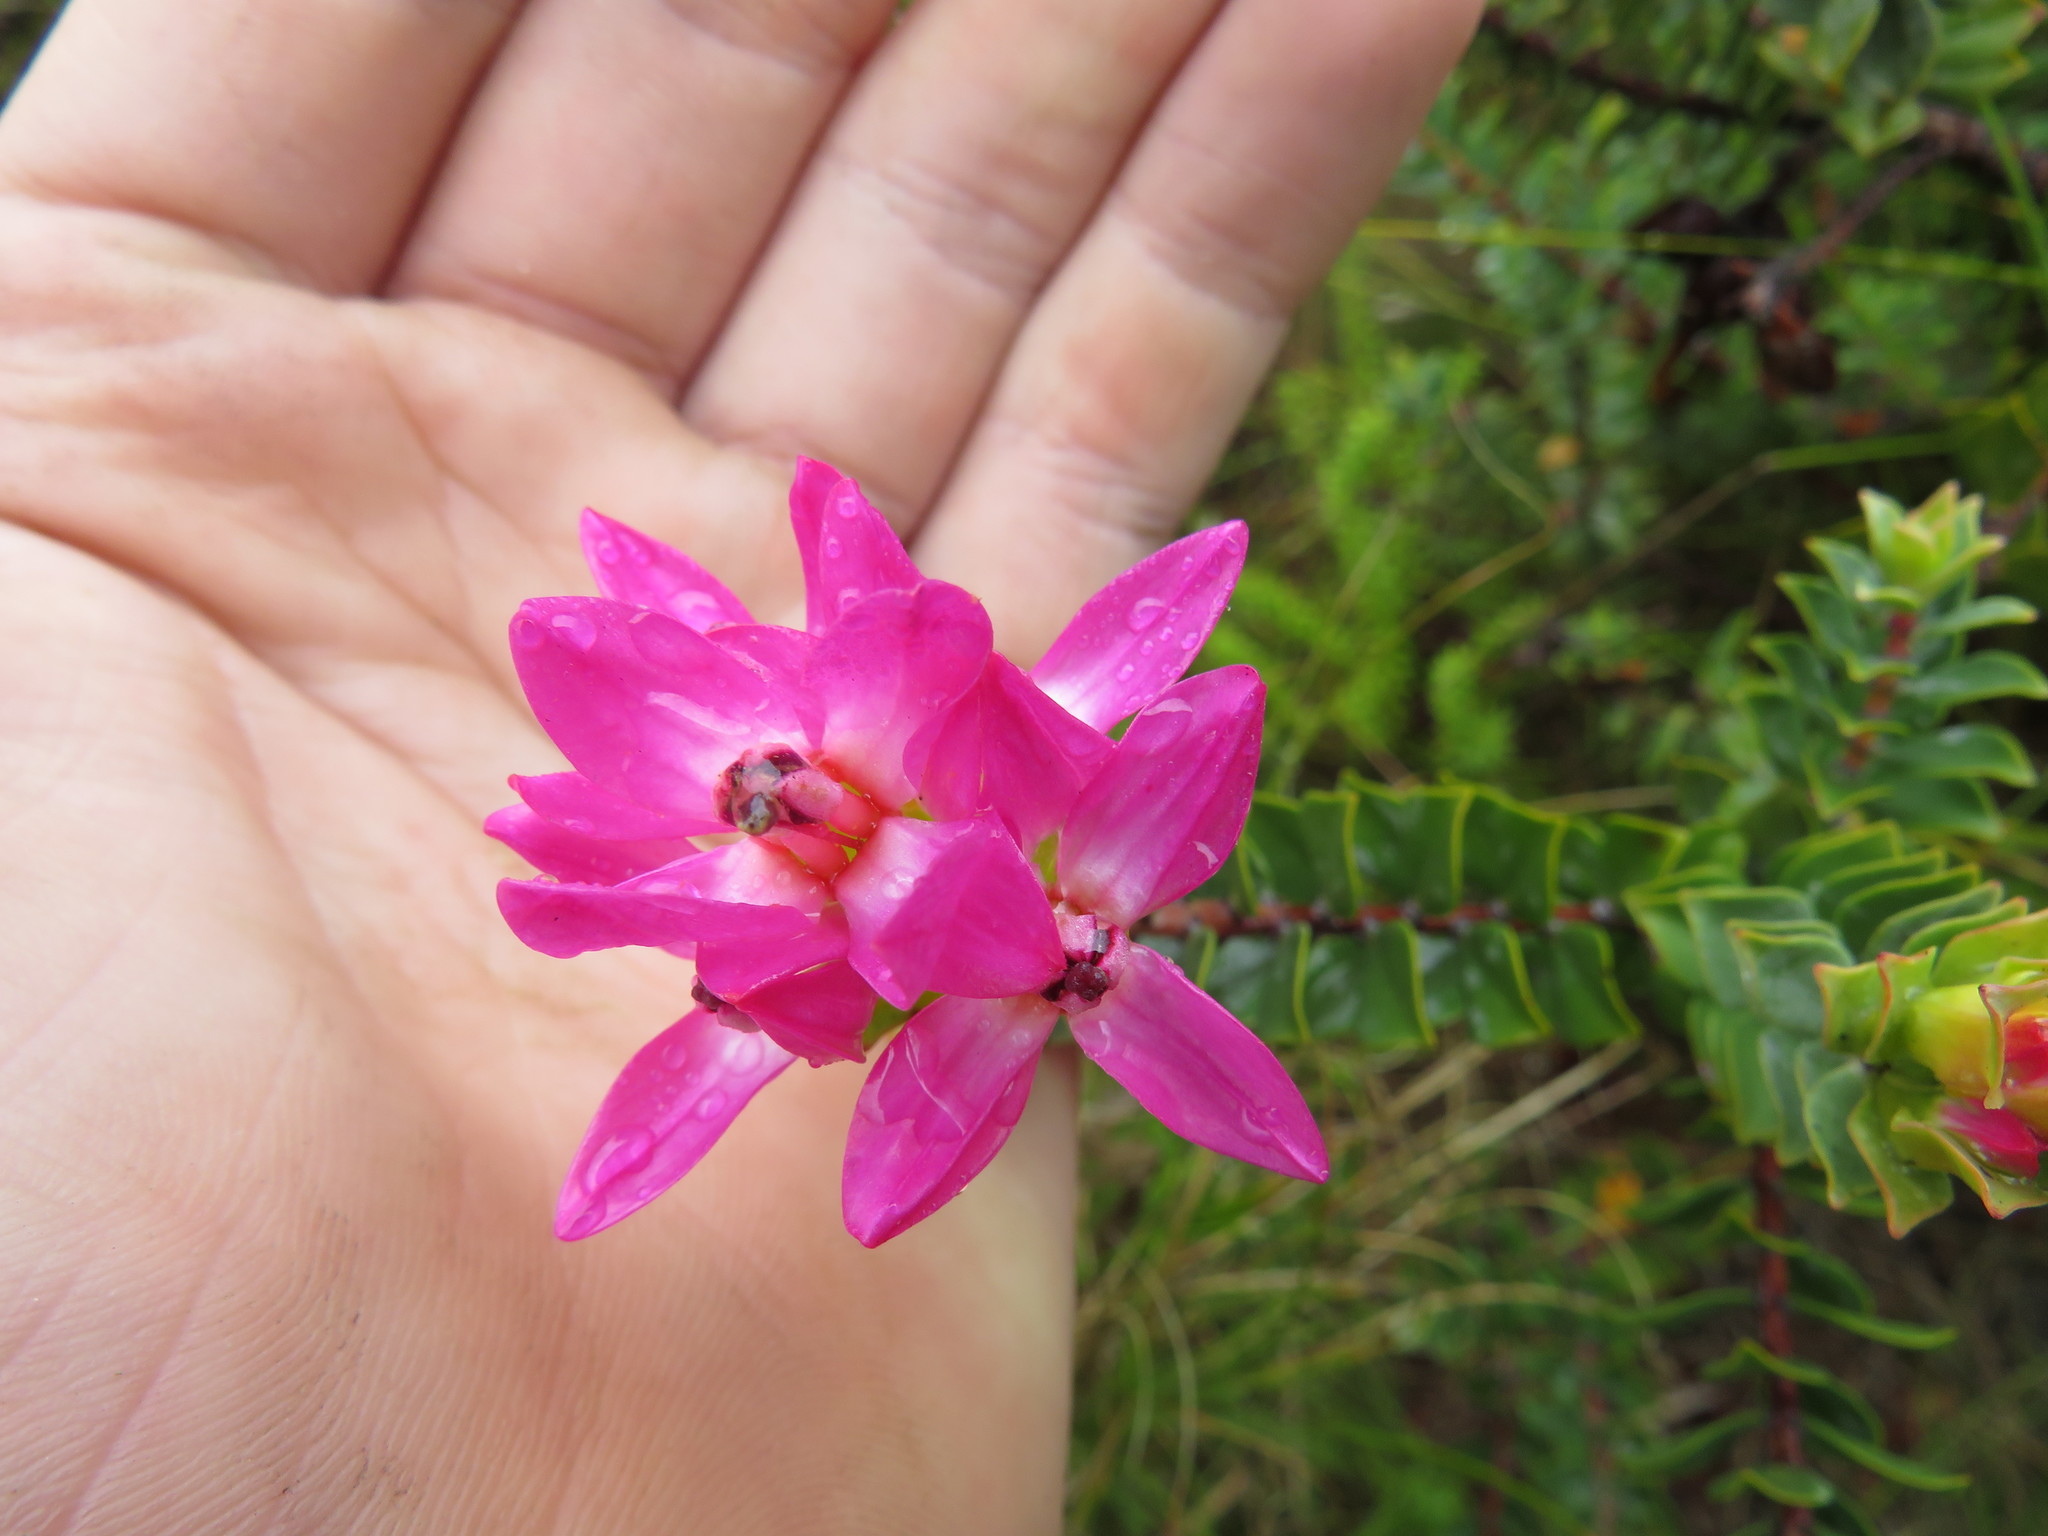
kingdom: Plantae
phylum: Tracheophyta
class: Magnoliopsida
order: Myrtales
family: Penaeaceae
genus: Saltera
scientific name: Saltera sarcocolla
